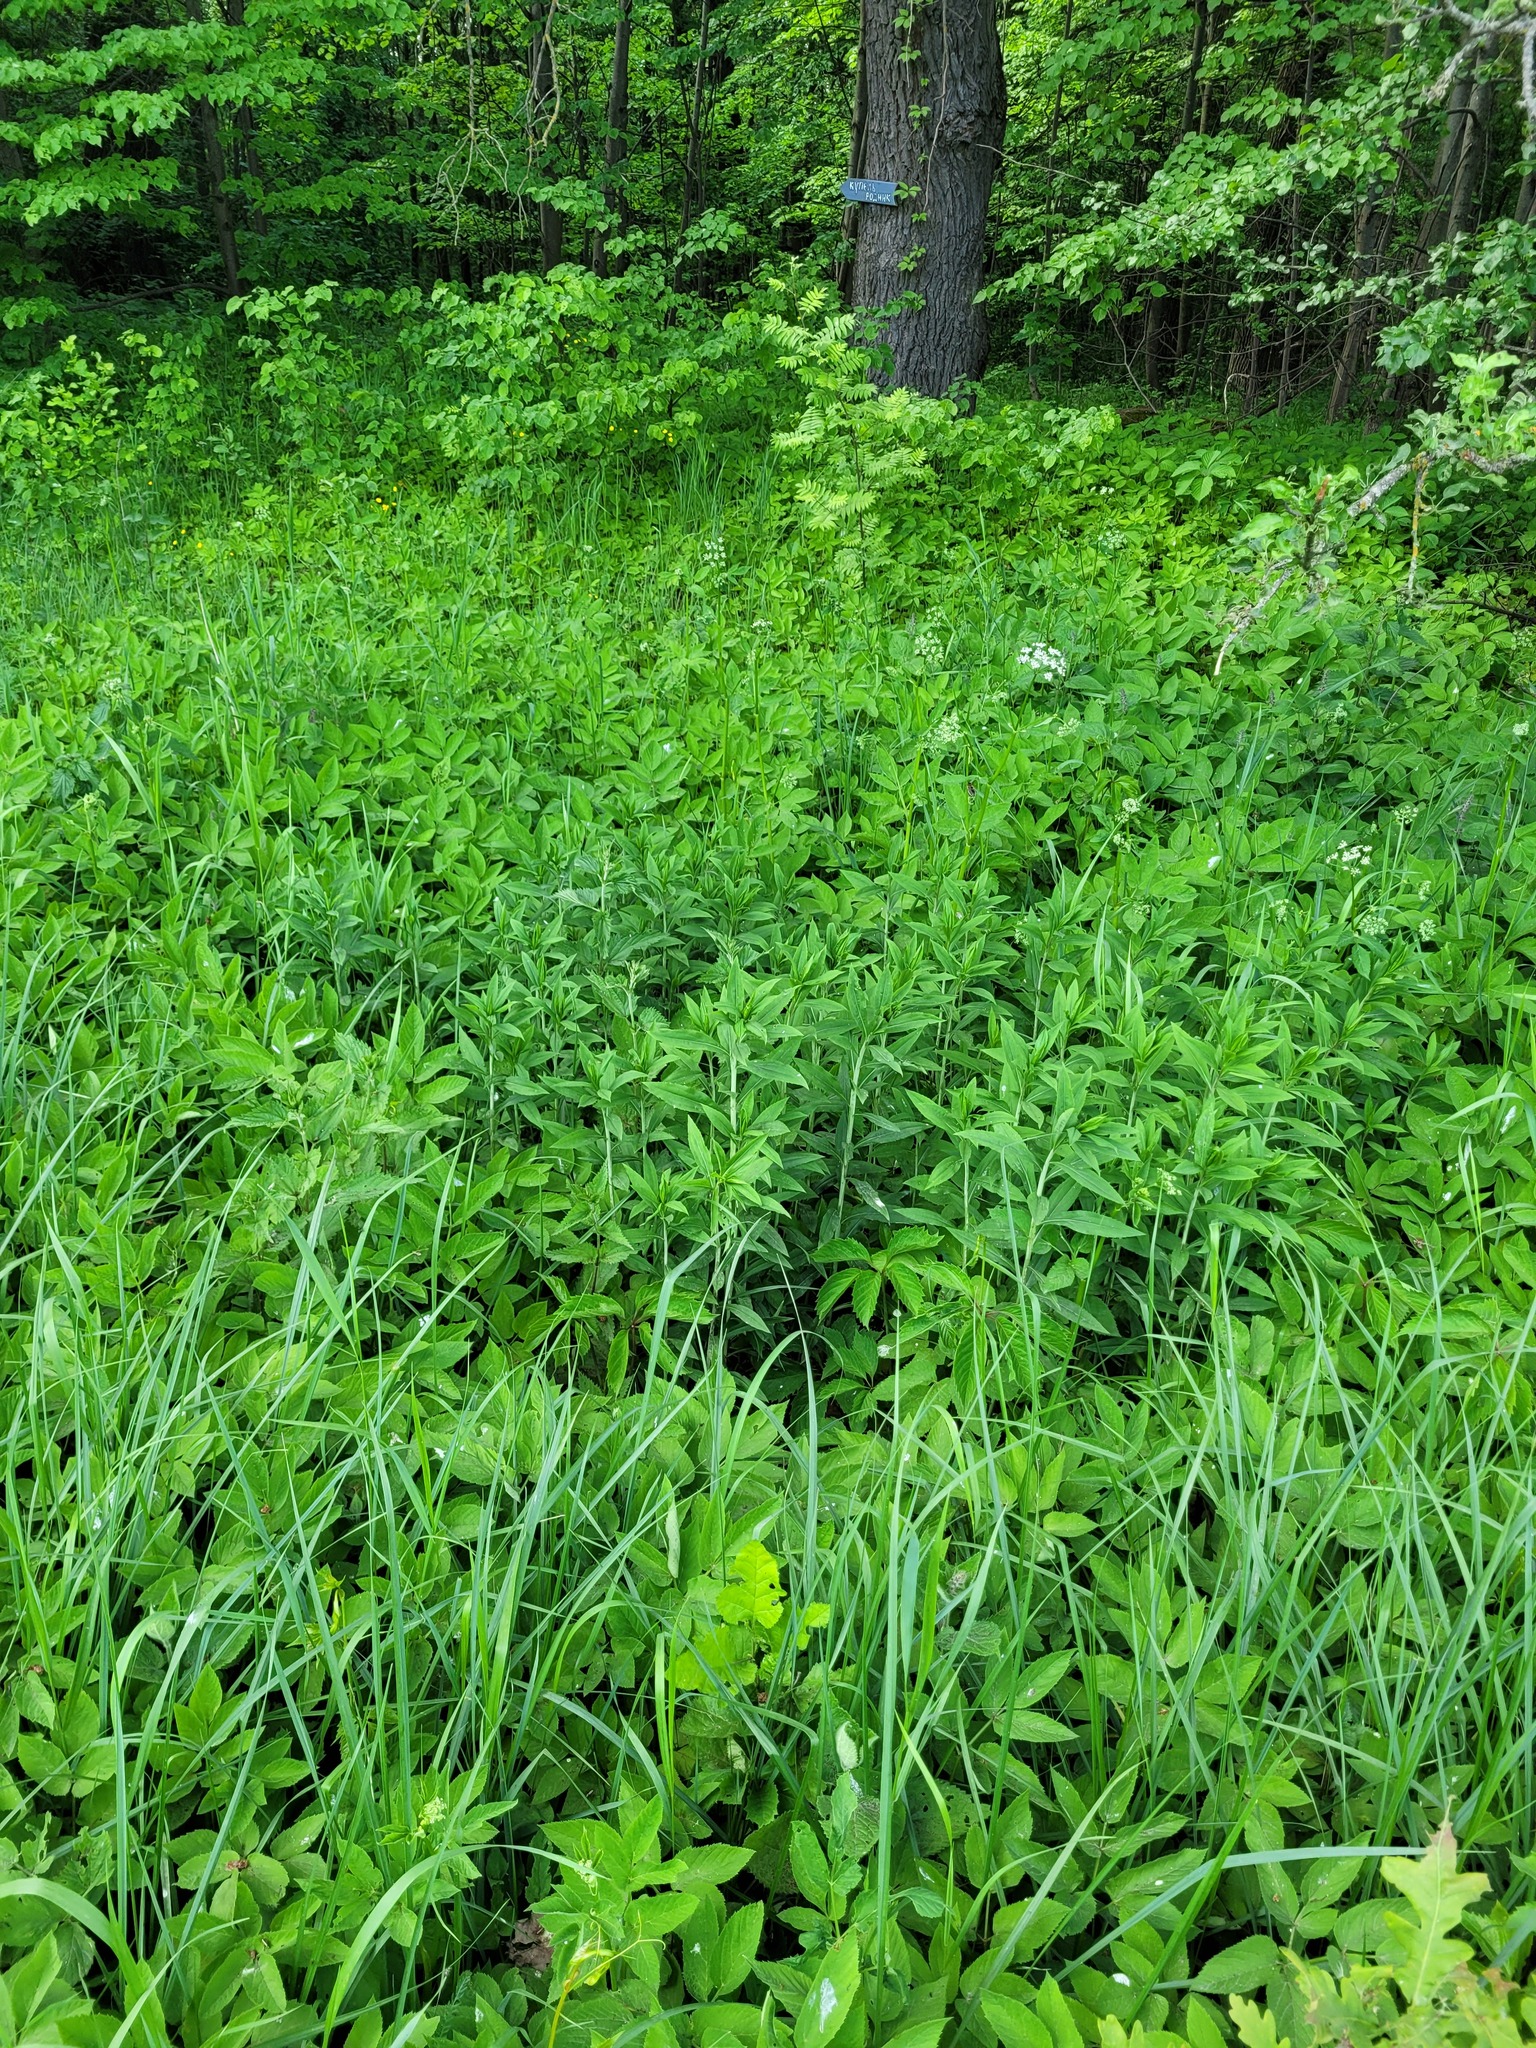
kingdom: Plantae
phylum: Tracheophyta
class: Magnoliopsida
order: Asterales
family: Asteraceae
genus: Solidago
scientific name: Solidago gigantea
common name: Giant goldenrod
